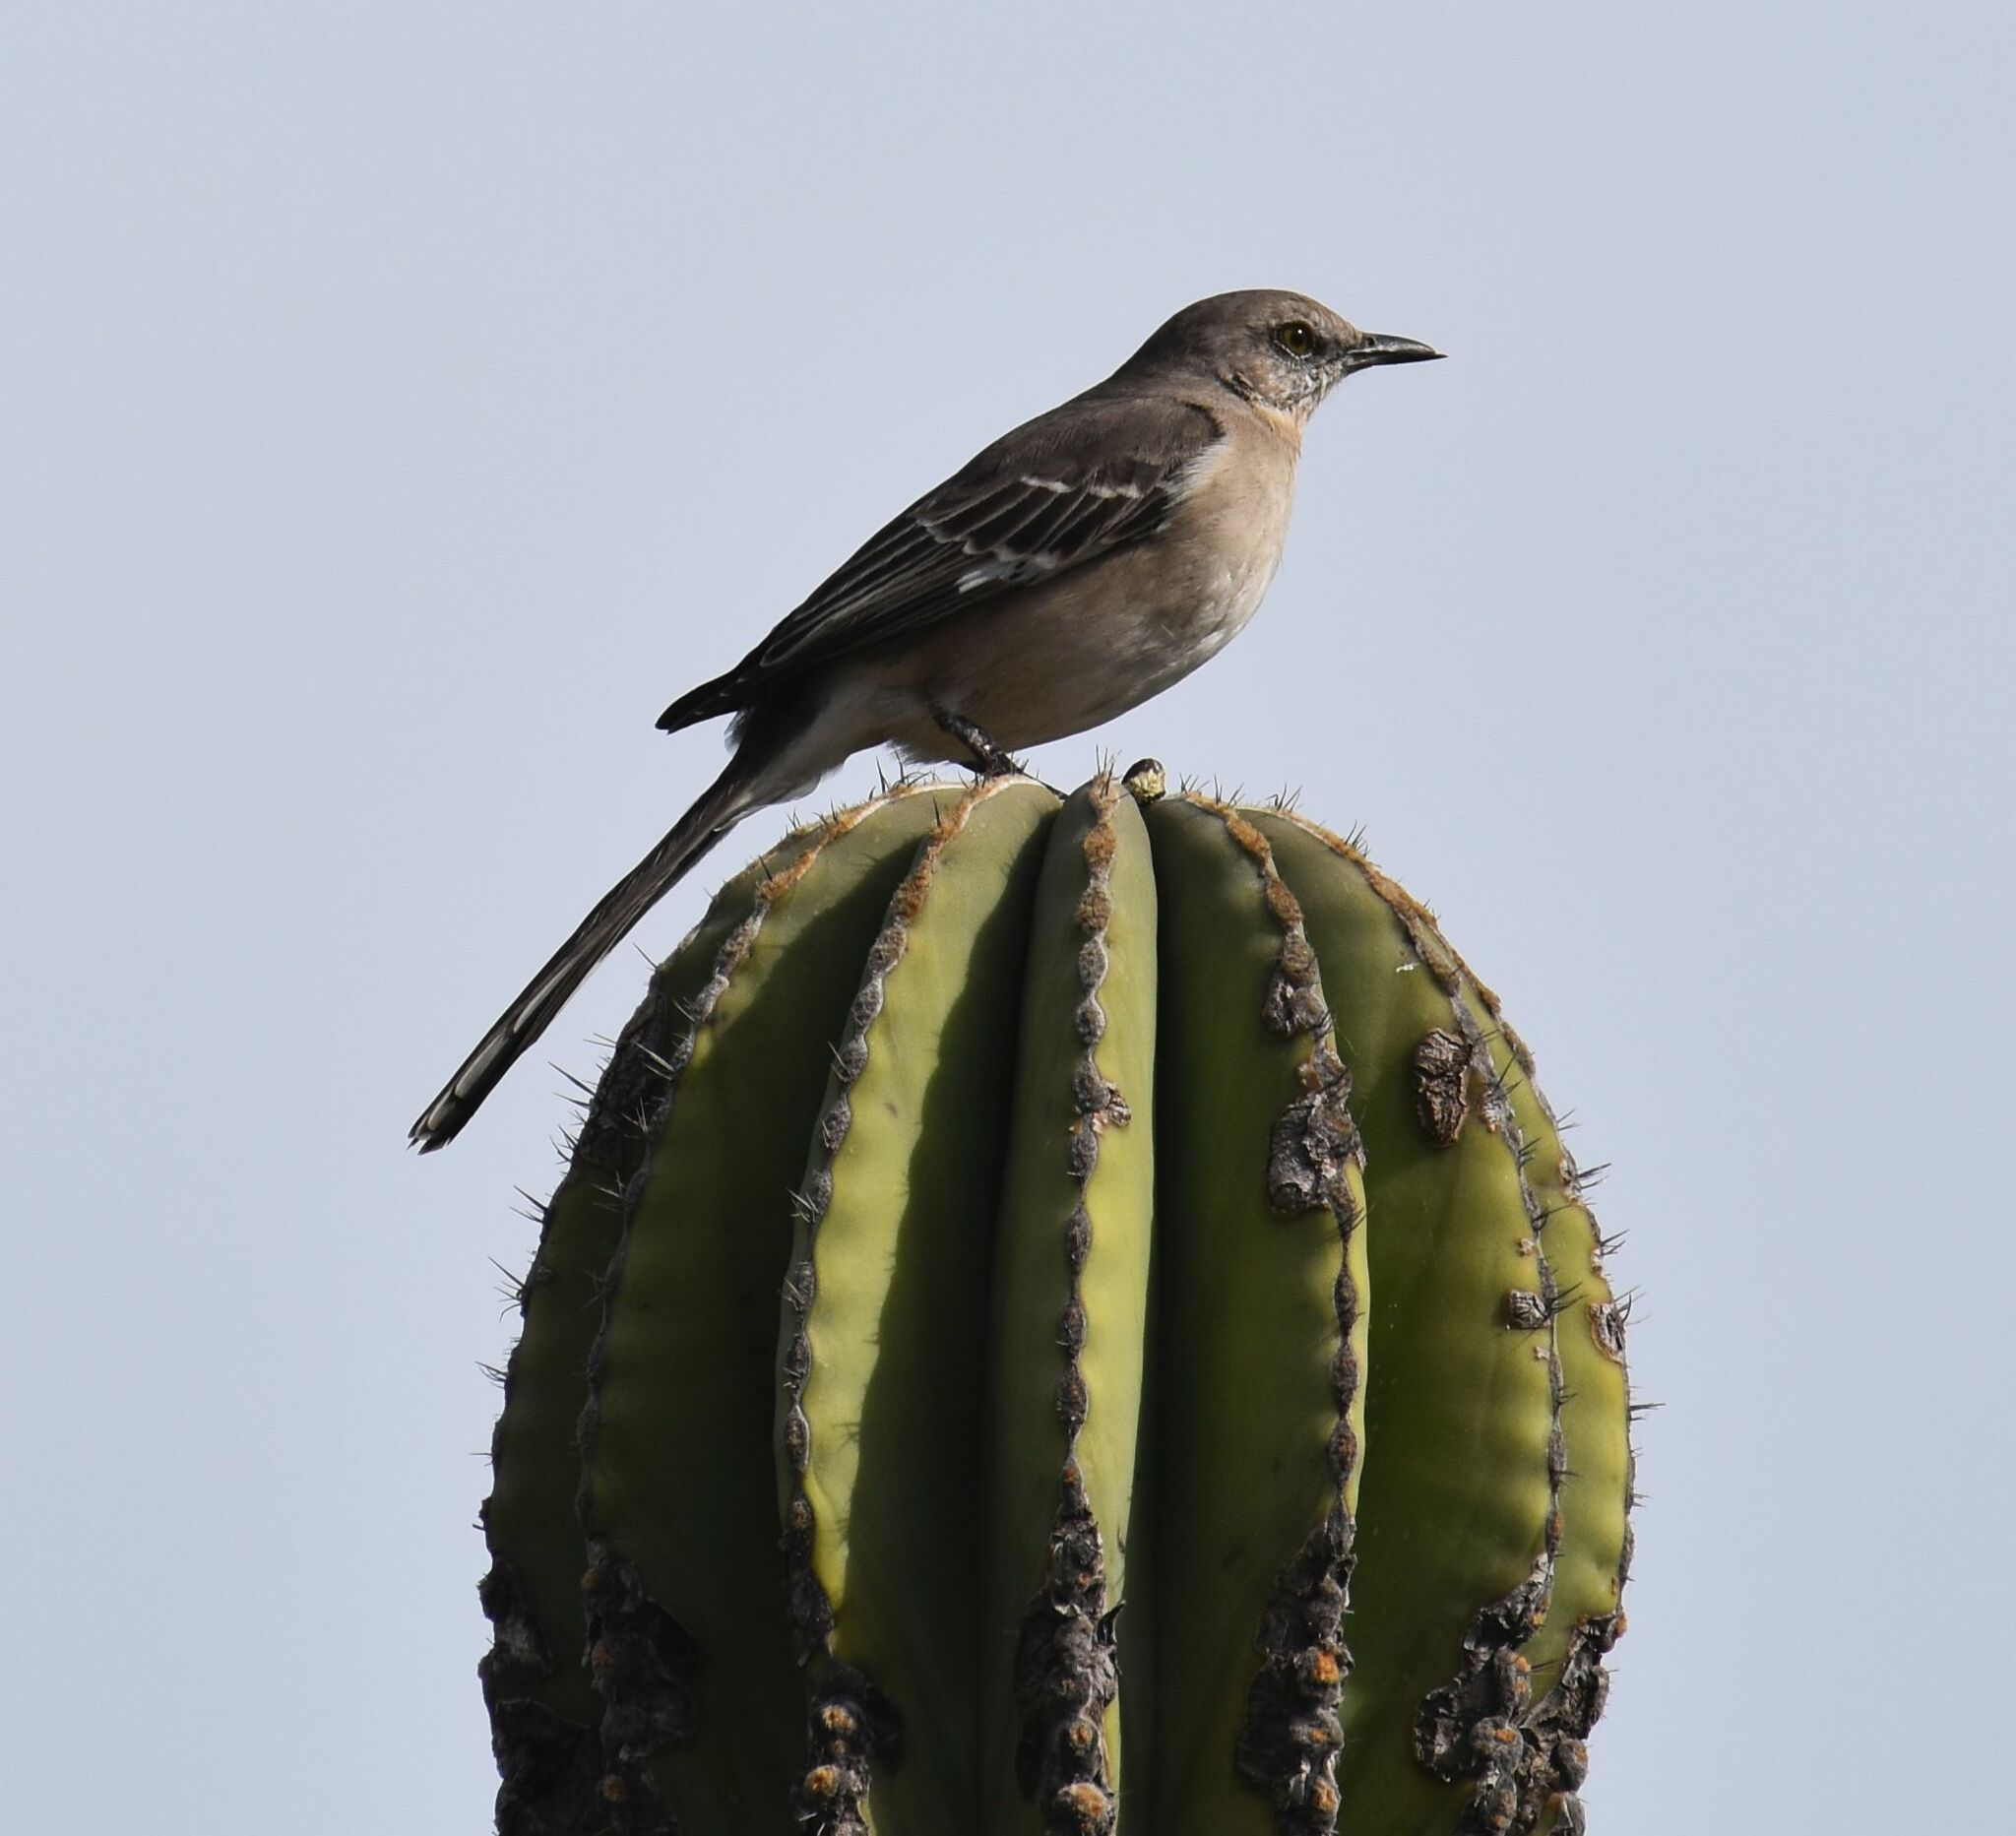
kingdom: Animalia
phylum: Chordata
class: Aves
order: Passeriformes
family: Mimidae
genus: Mimus
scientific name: Mimus polyglottos
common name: Northern mockingbird
